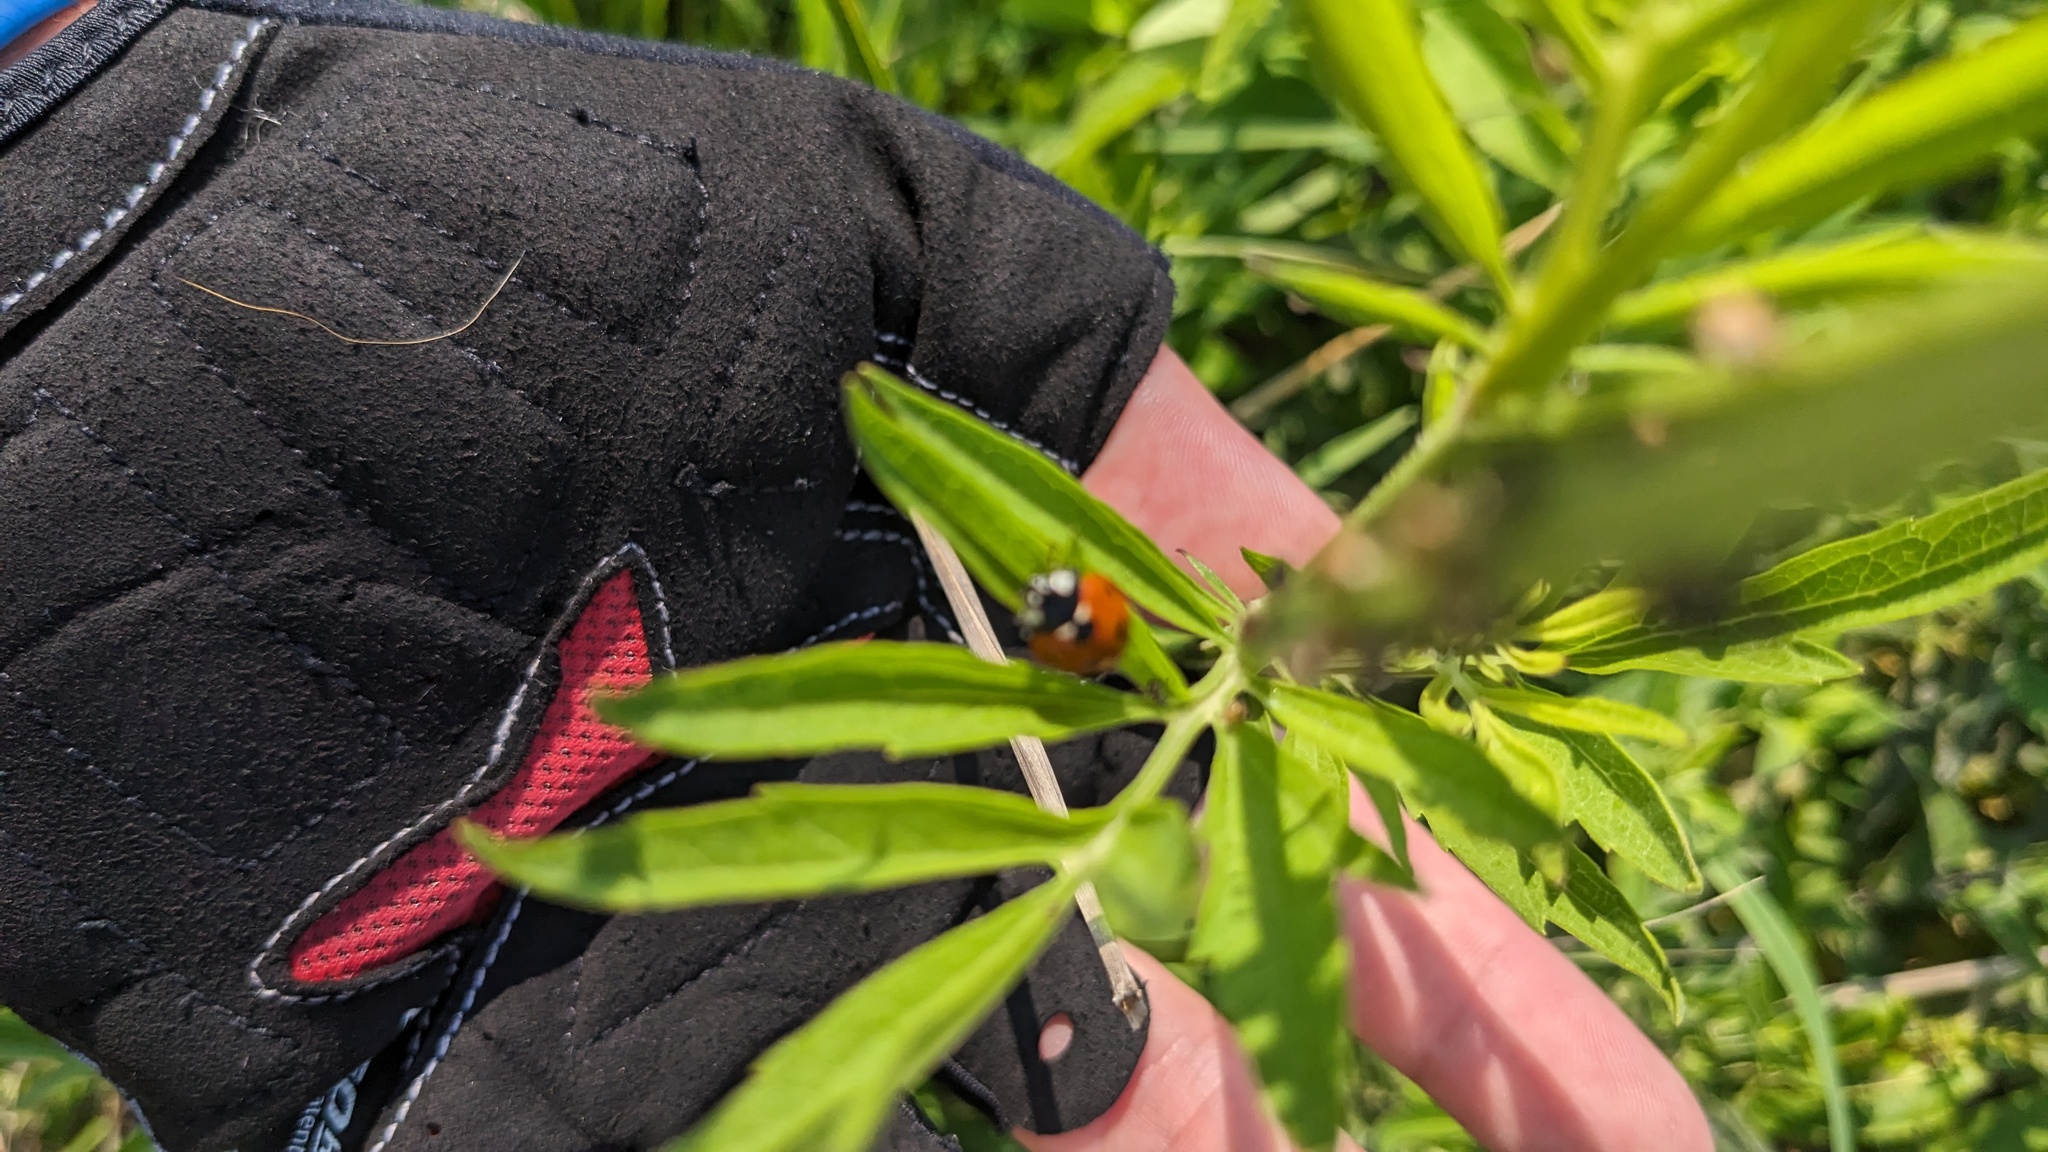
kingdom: Animalia
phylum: Arthropoda
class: Insecta
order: Coleoptera
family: Coccinellidae
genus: Coccinella
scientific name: Coccinella septempunctata
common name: Sevenspotted lady beetle
